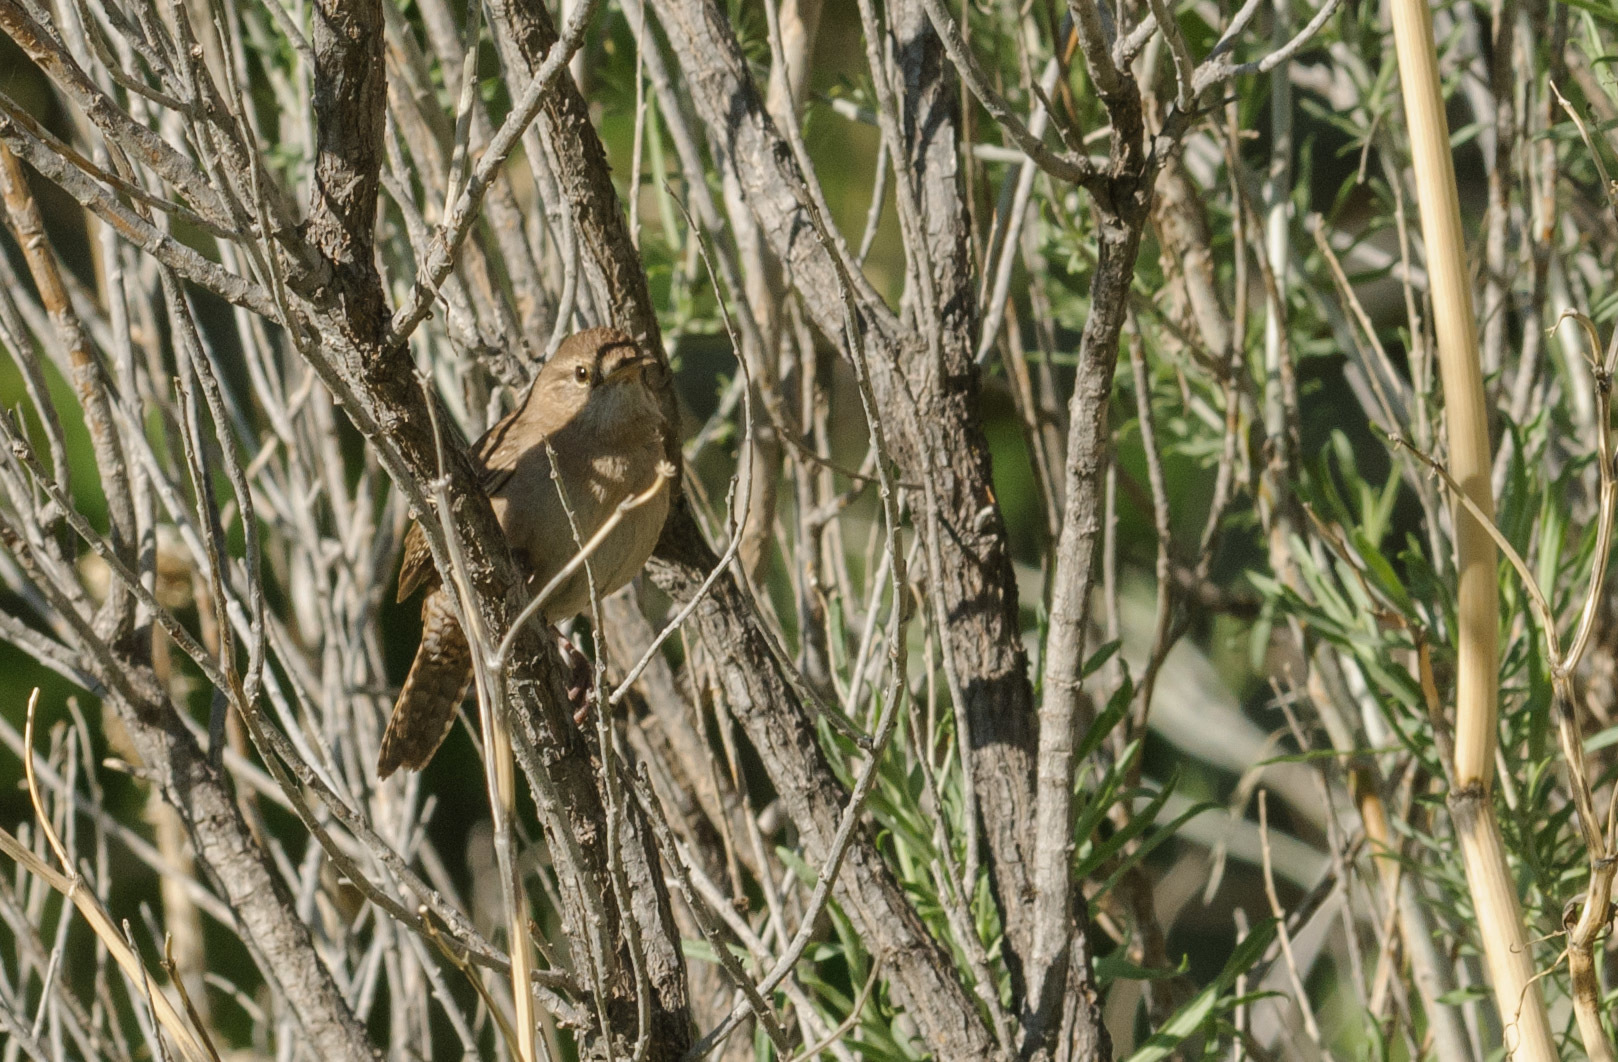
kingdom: Animalia
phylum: Chordata
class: Aves
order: Passeriformes
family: Troglodytidae
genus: Troglodytes
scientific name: Troglodytes aedon
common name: House wren
